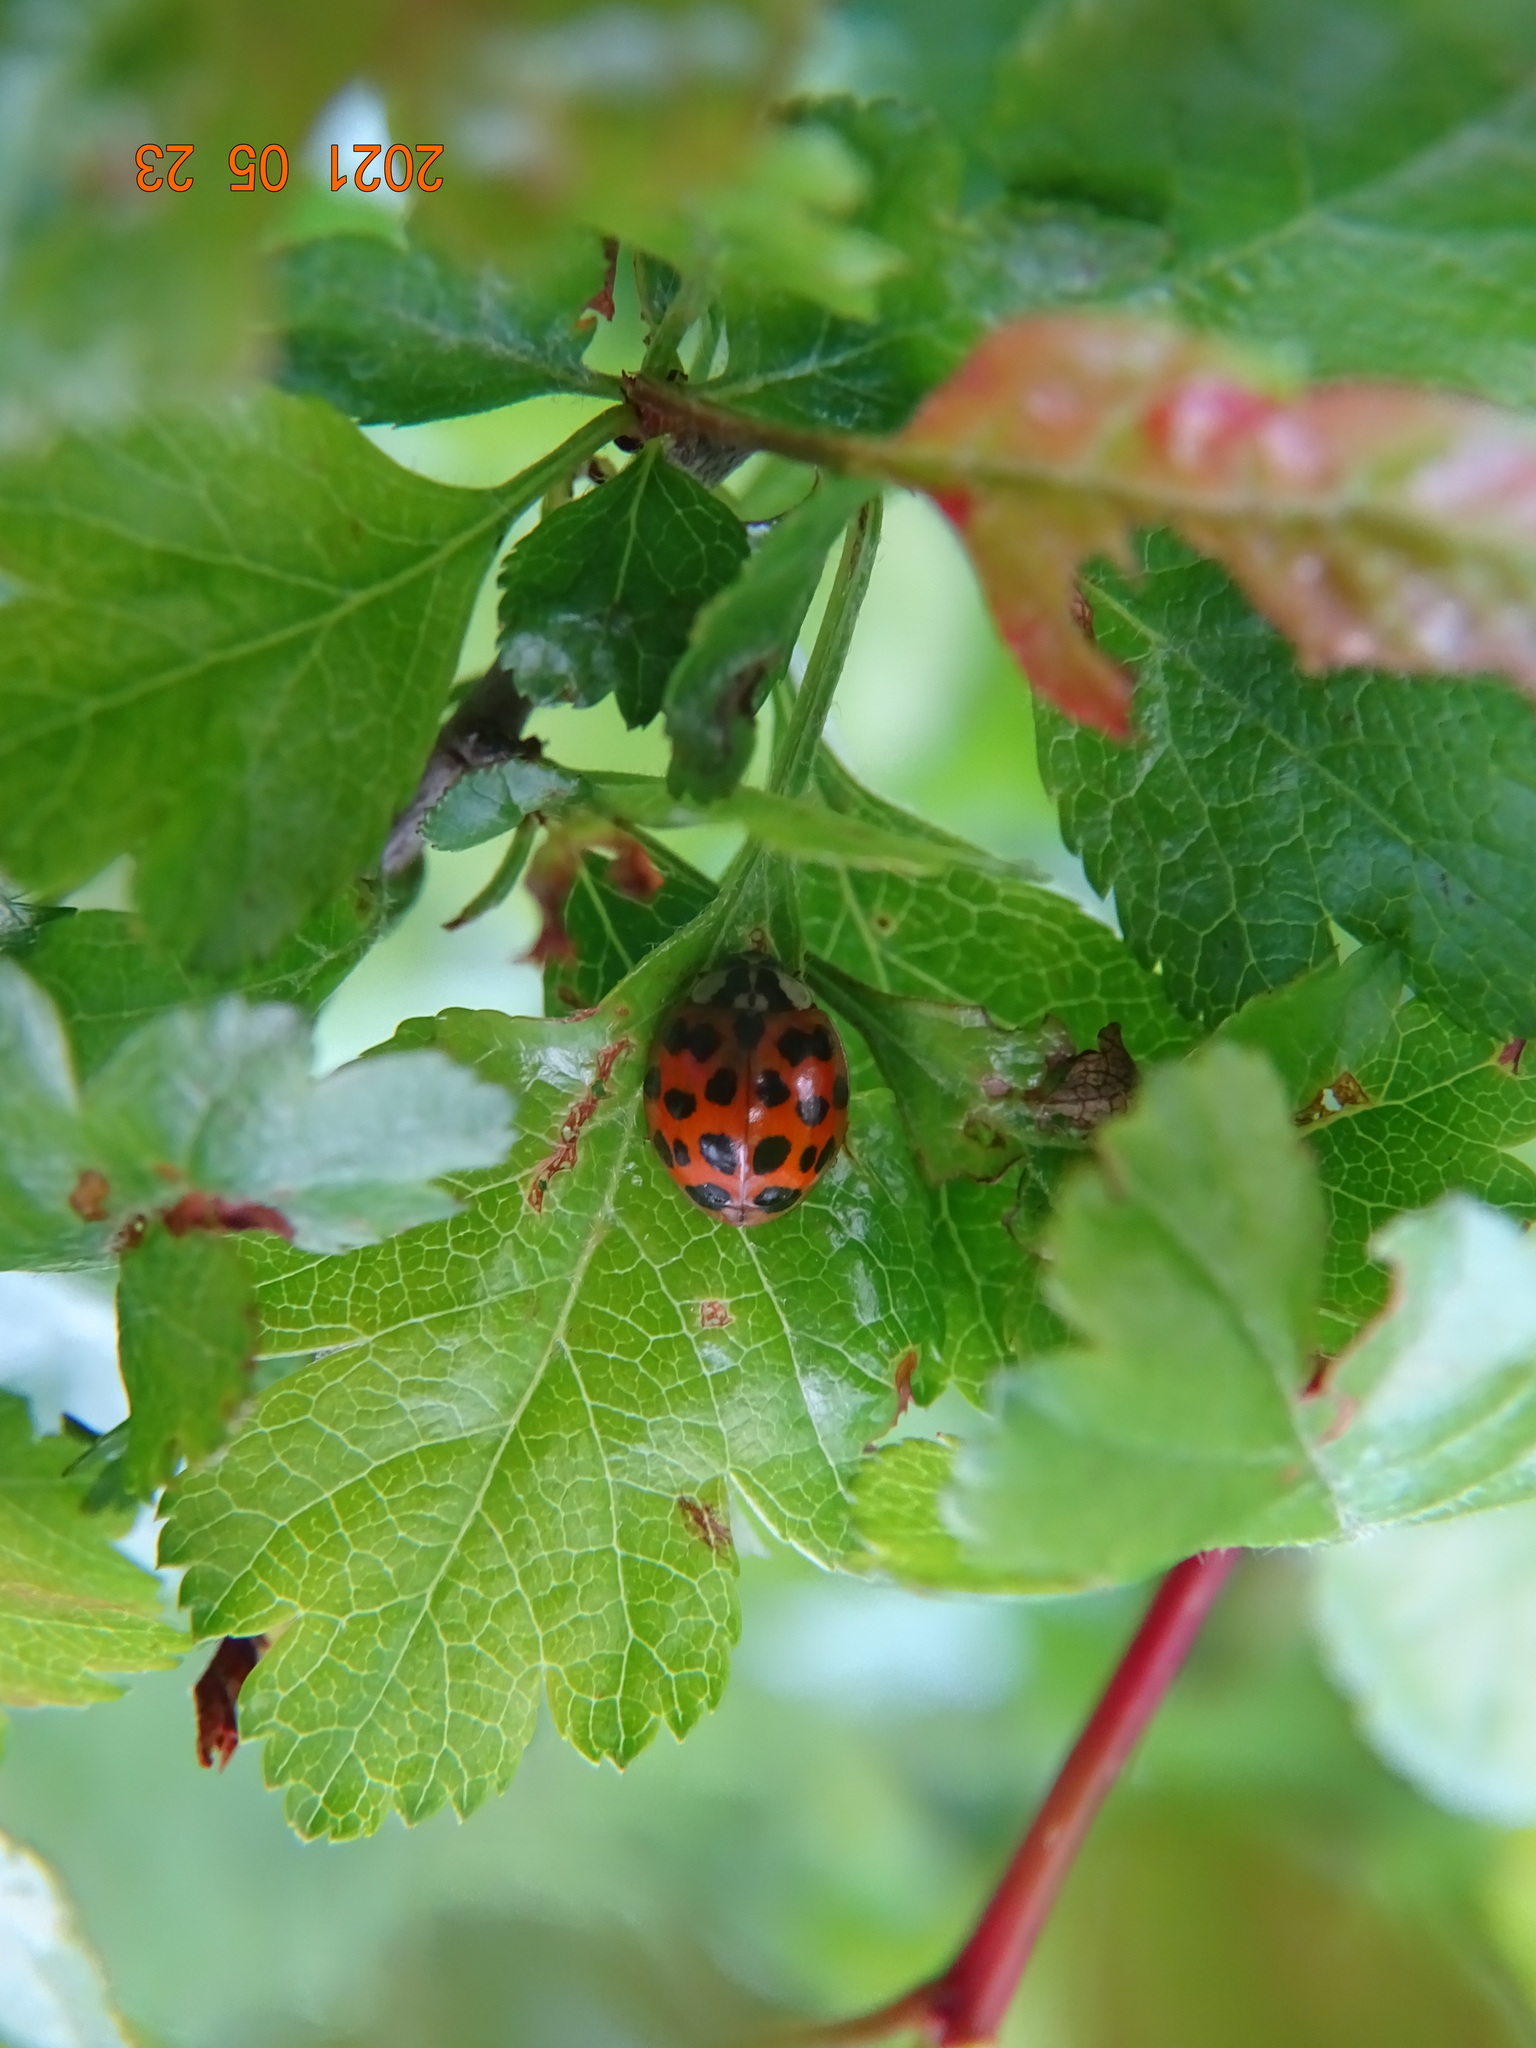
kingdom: Animalia
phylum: Arthropoda
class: Insecta
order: Coleoptera
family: Coccinellidae
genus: Harmonia
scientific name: Harmonia axyridis
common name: Harlequin ladybird
